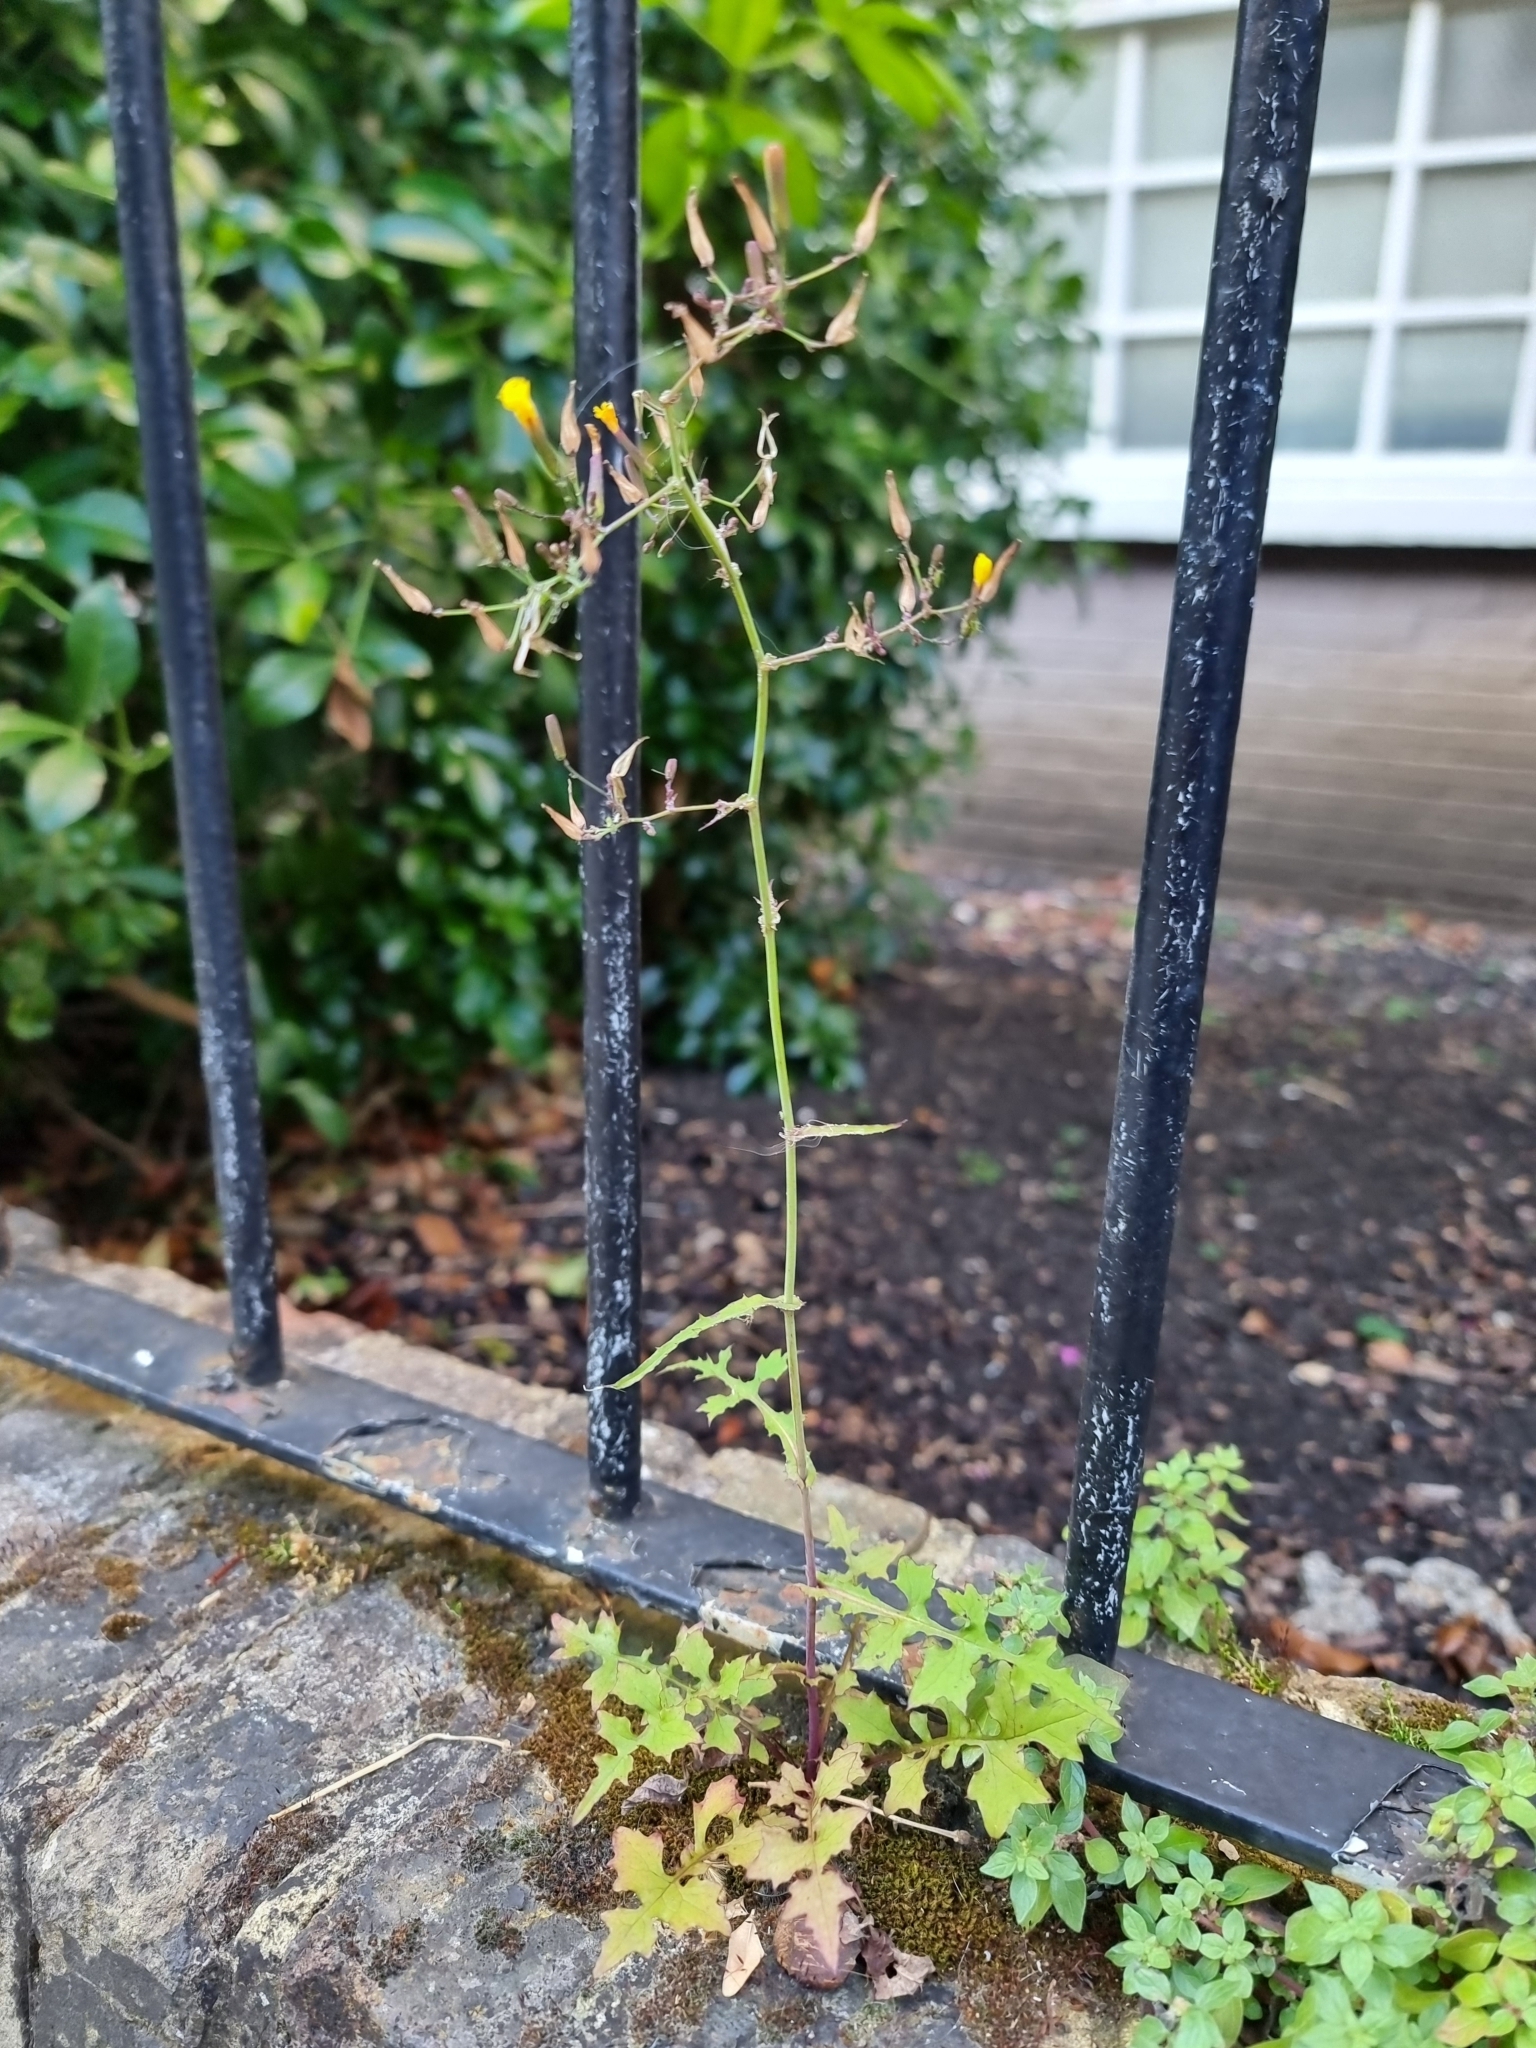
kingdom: Plantae
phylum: Tracheophyta
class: Magnoliopsida
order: Asterales
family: Asteraceae
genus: Mycelis
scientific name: Mycelis muralis
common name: Wall lettuce
